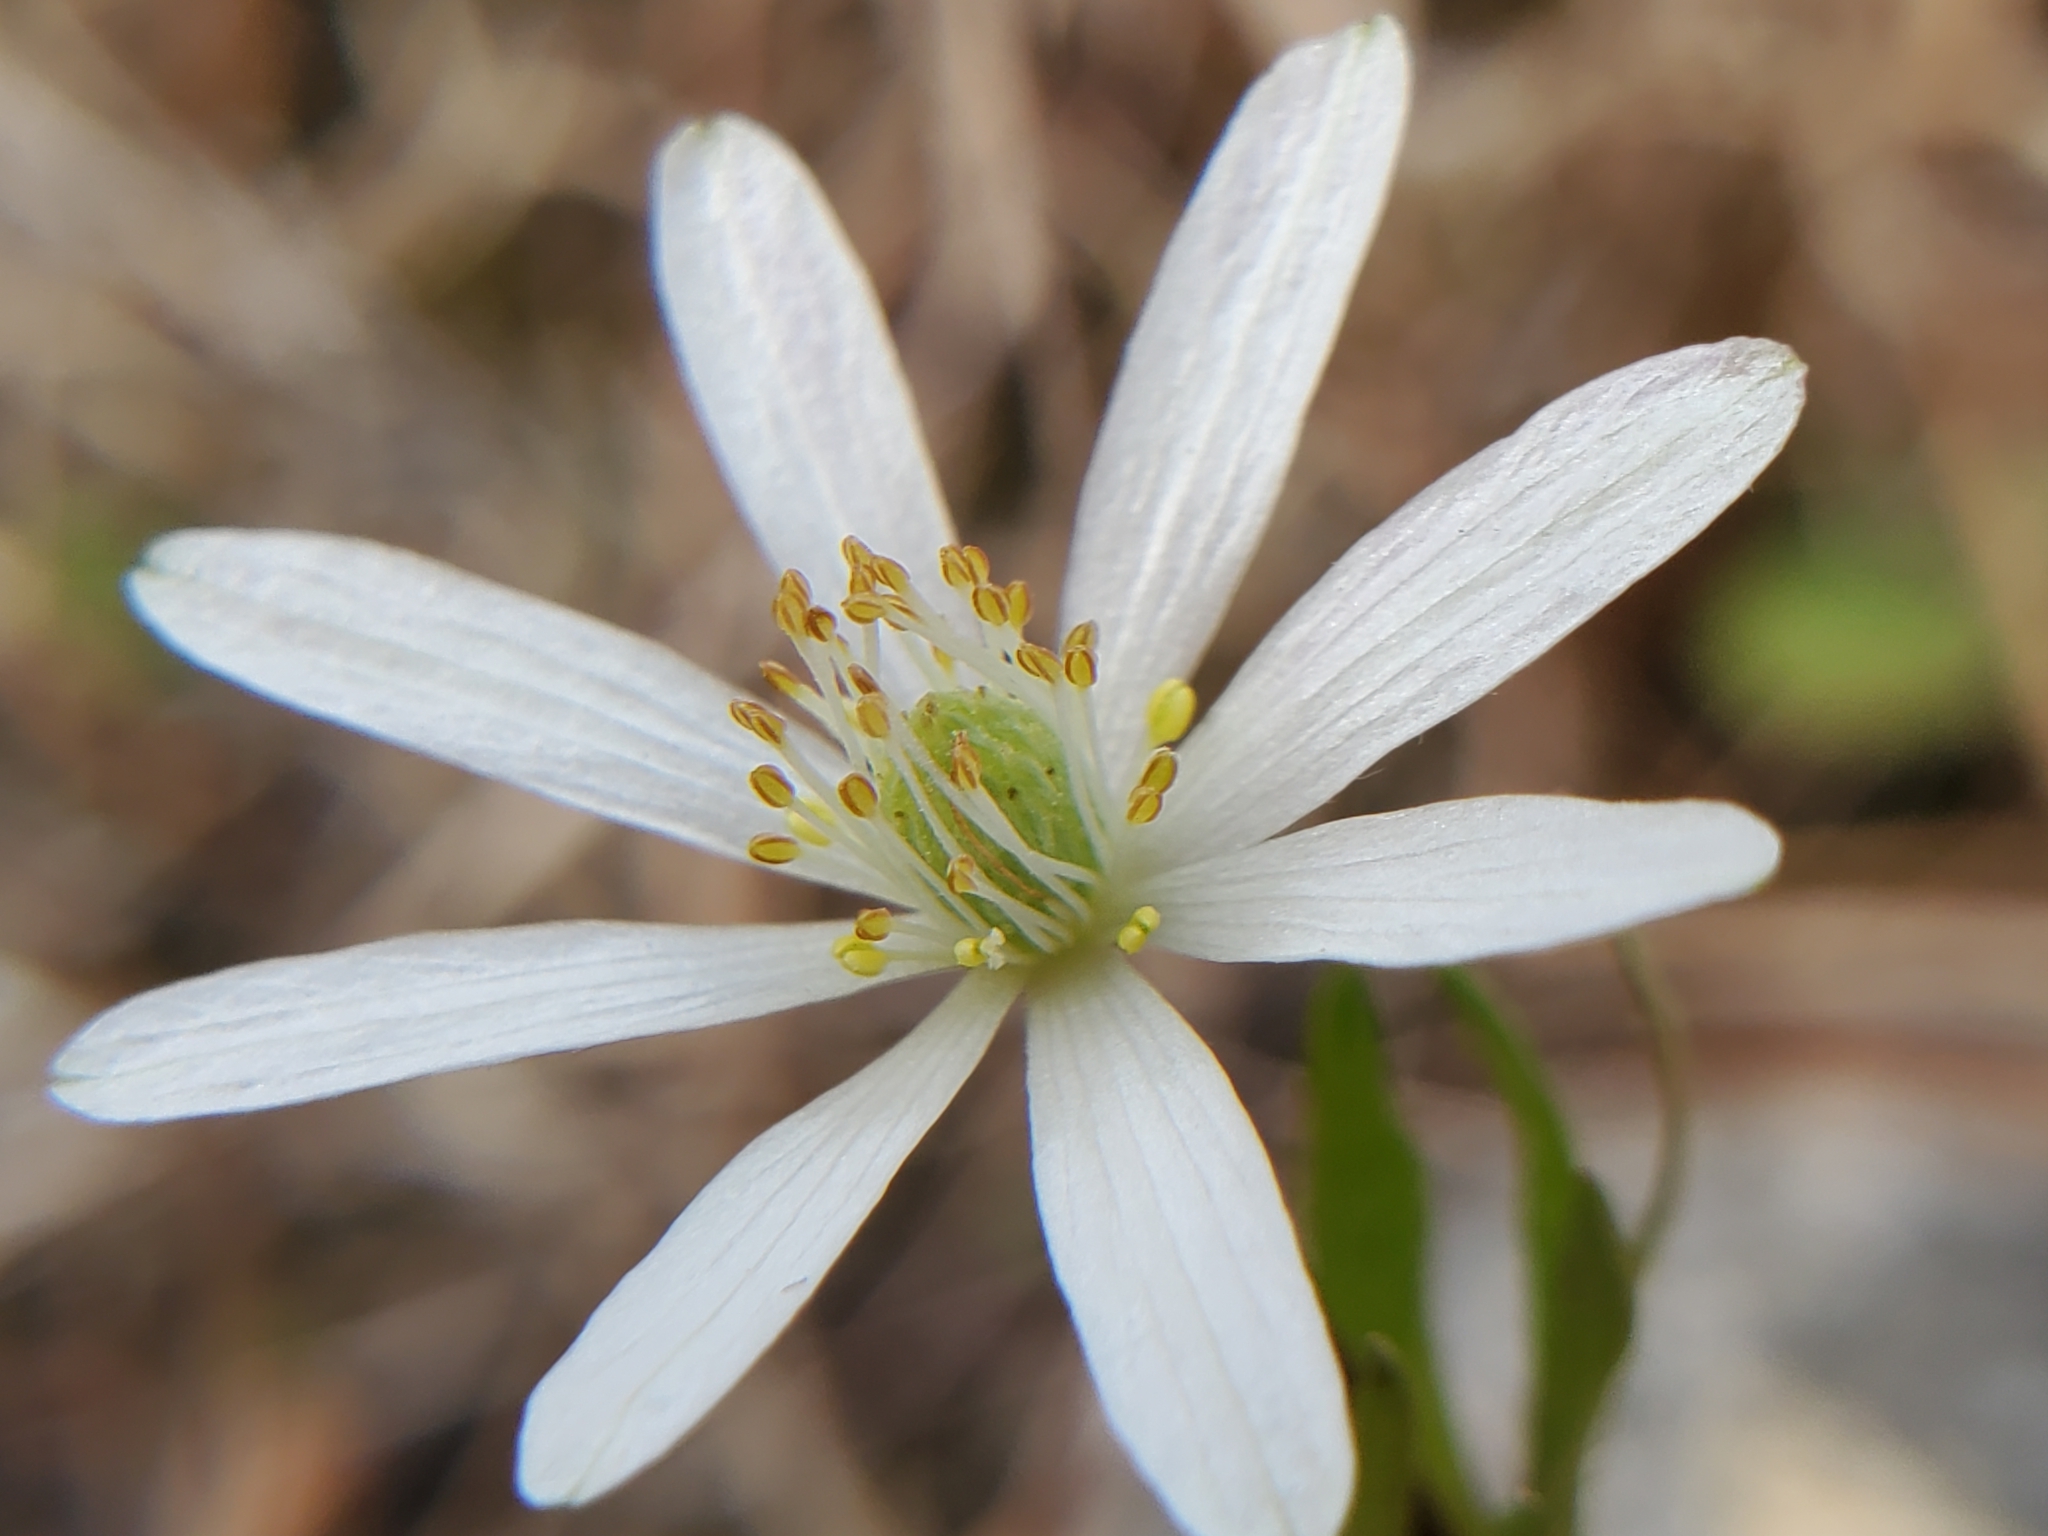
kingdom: Plantae
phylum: Tracheophyta
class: Magnoliopsida
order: Ranunculales
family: Ranunculaceae
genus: Anemone
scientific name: Anemone berlandieri
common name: Ten-petal anemone
